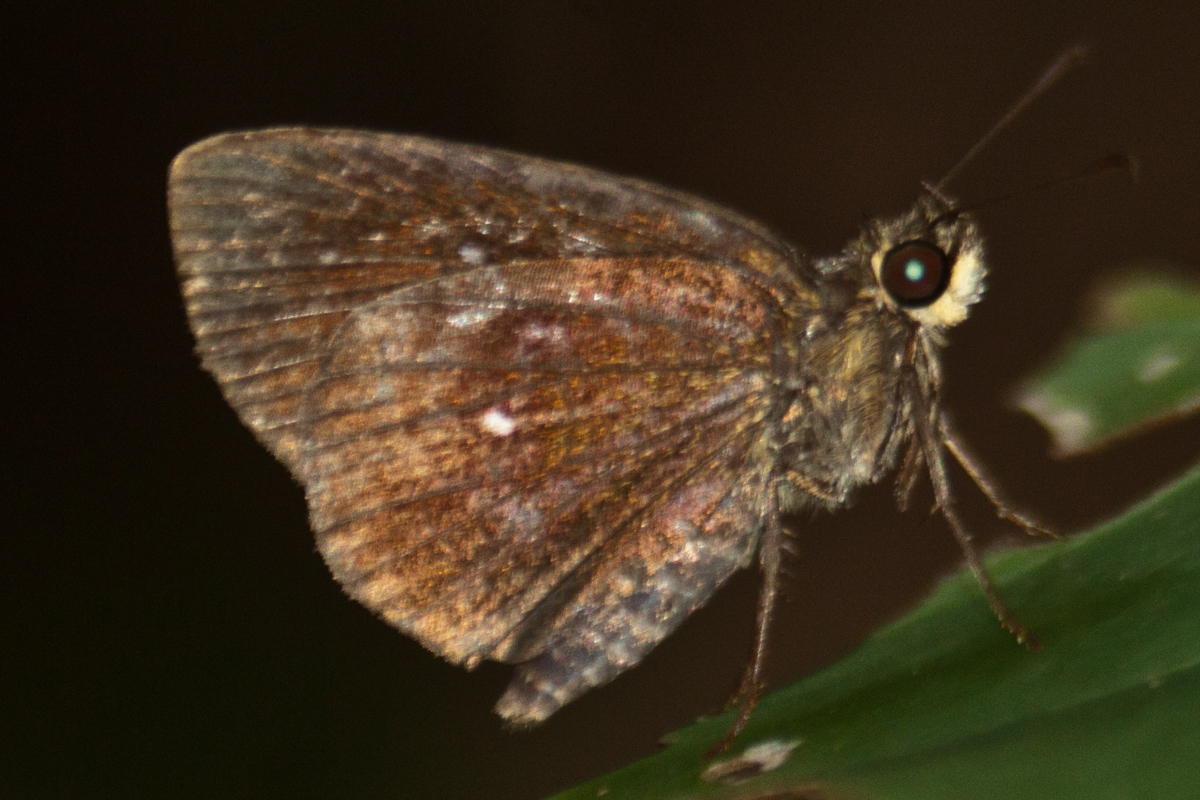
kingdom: Animalia
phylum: Arthropoda
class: Insecta
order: Lepidoptera
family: Hesperiidae
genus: Iambrix
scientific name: Iambrix salsala
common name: Chestnut bob
